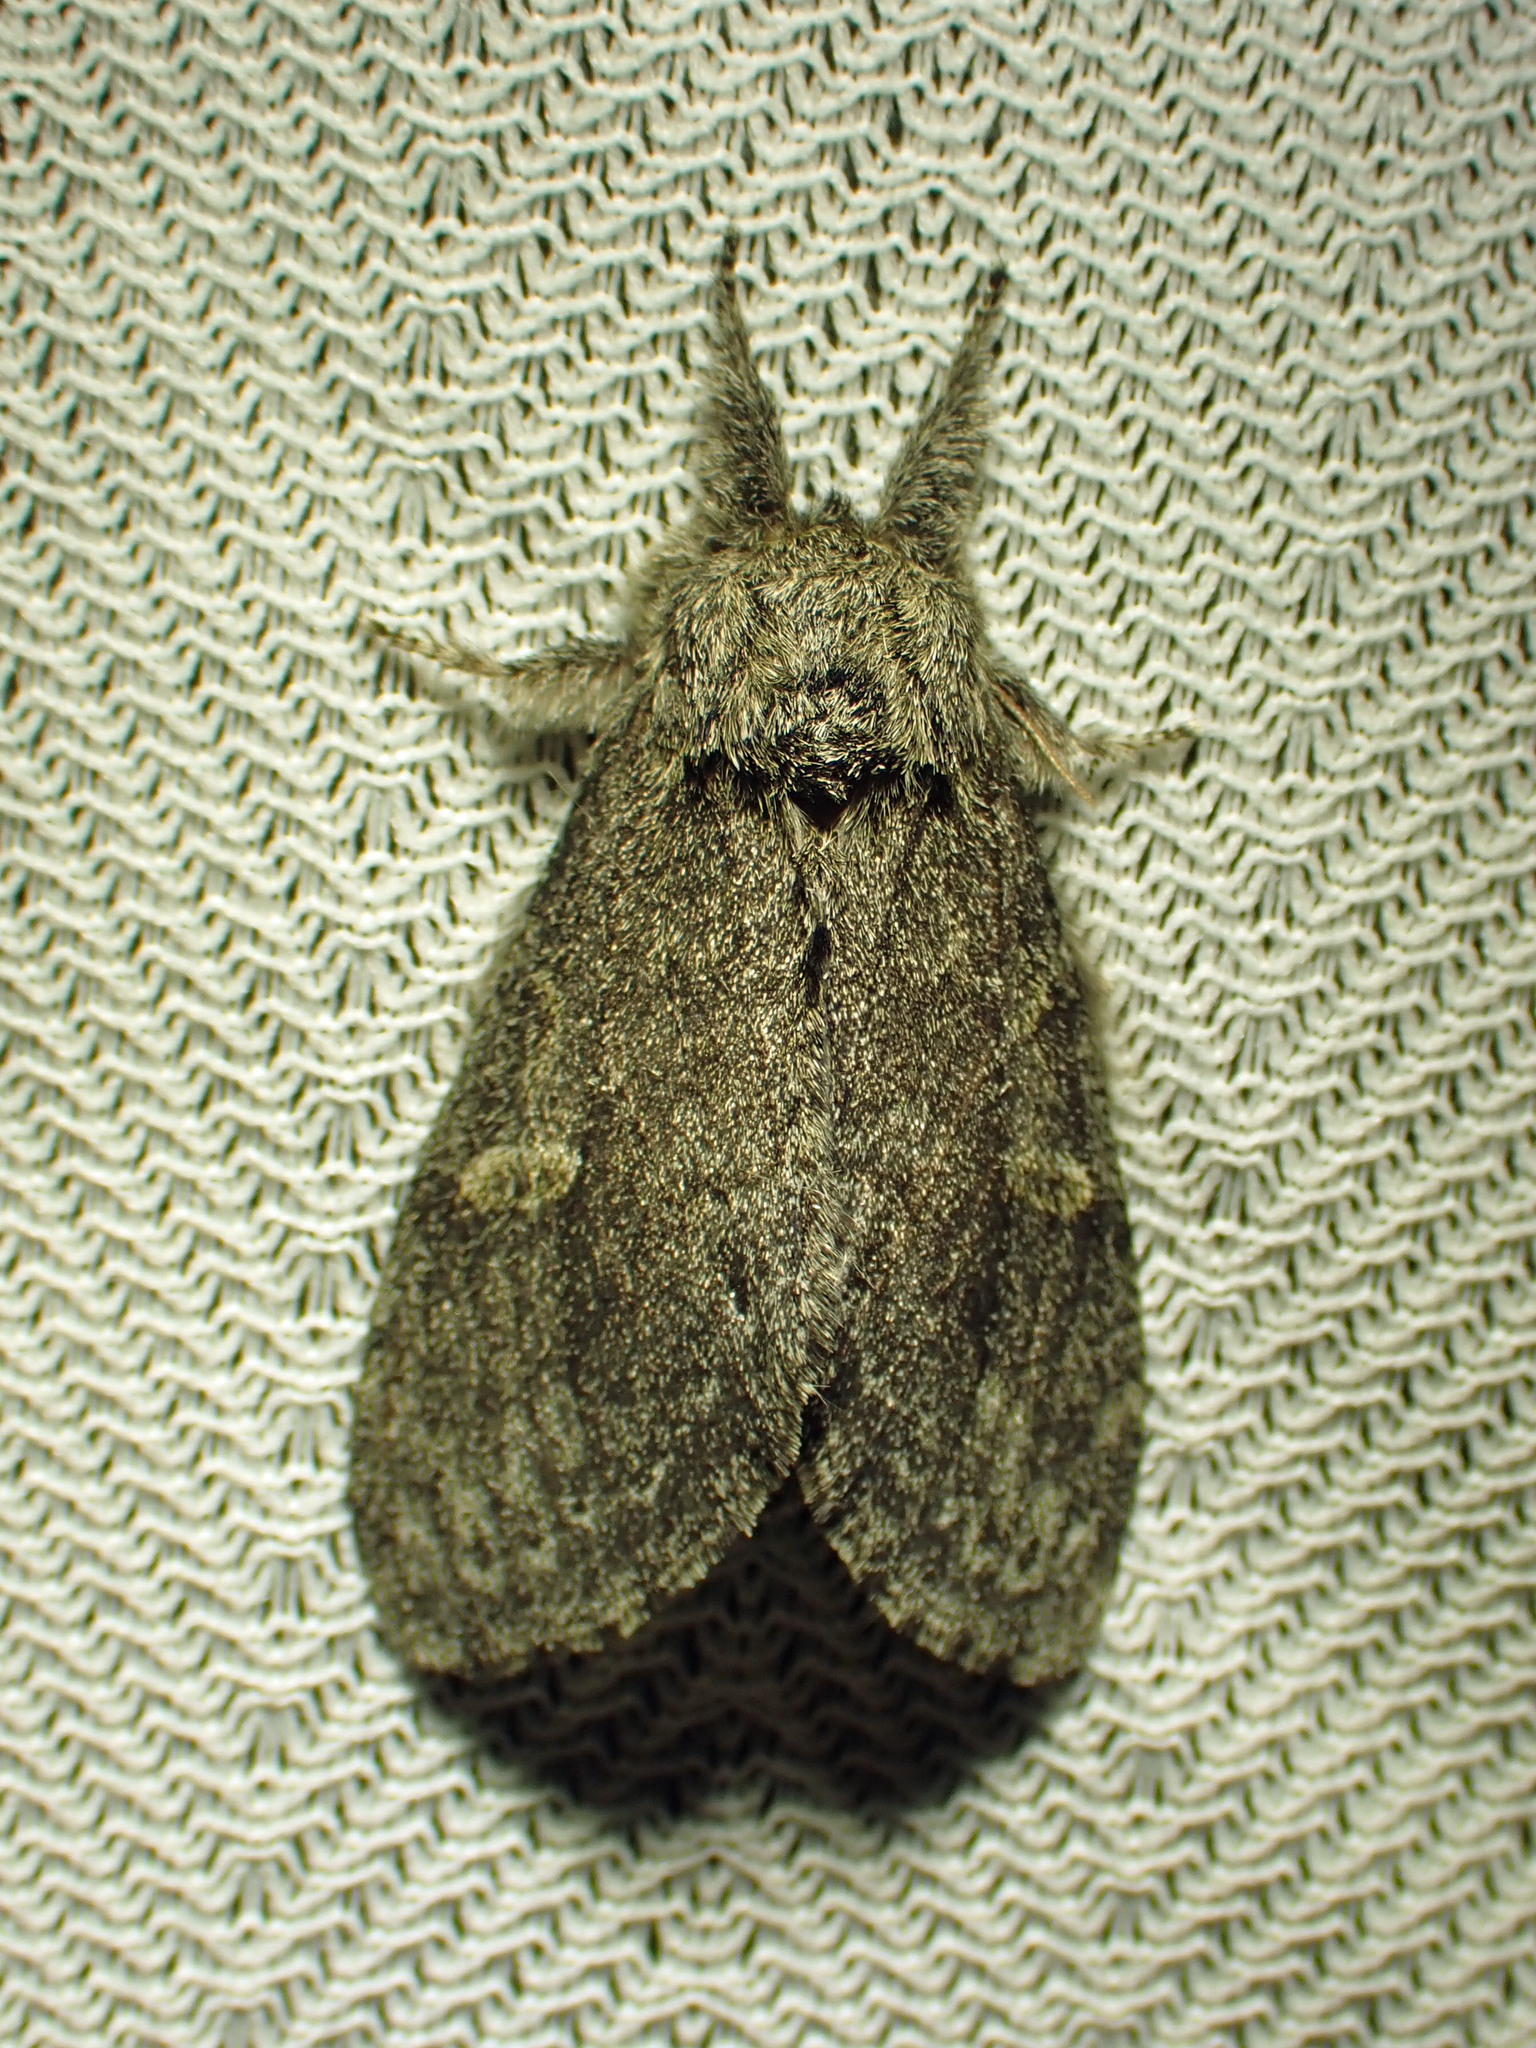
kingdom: Animalia
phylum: Arthropoda
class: Insecta
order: Lepidoptera
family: Notodontidae
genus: Notodonta
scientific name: Notodonta torva
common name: Large dark prominent
